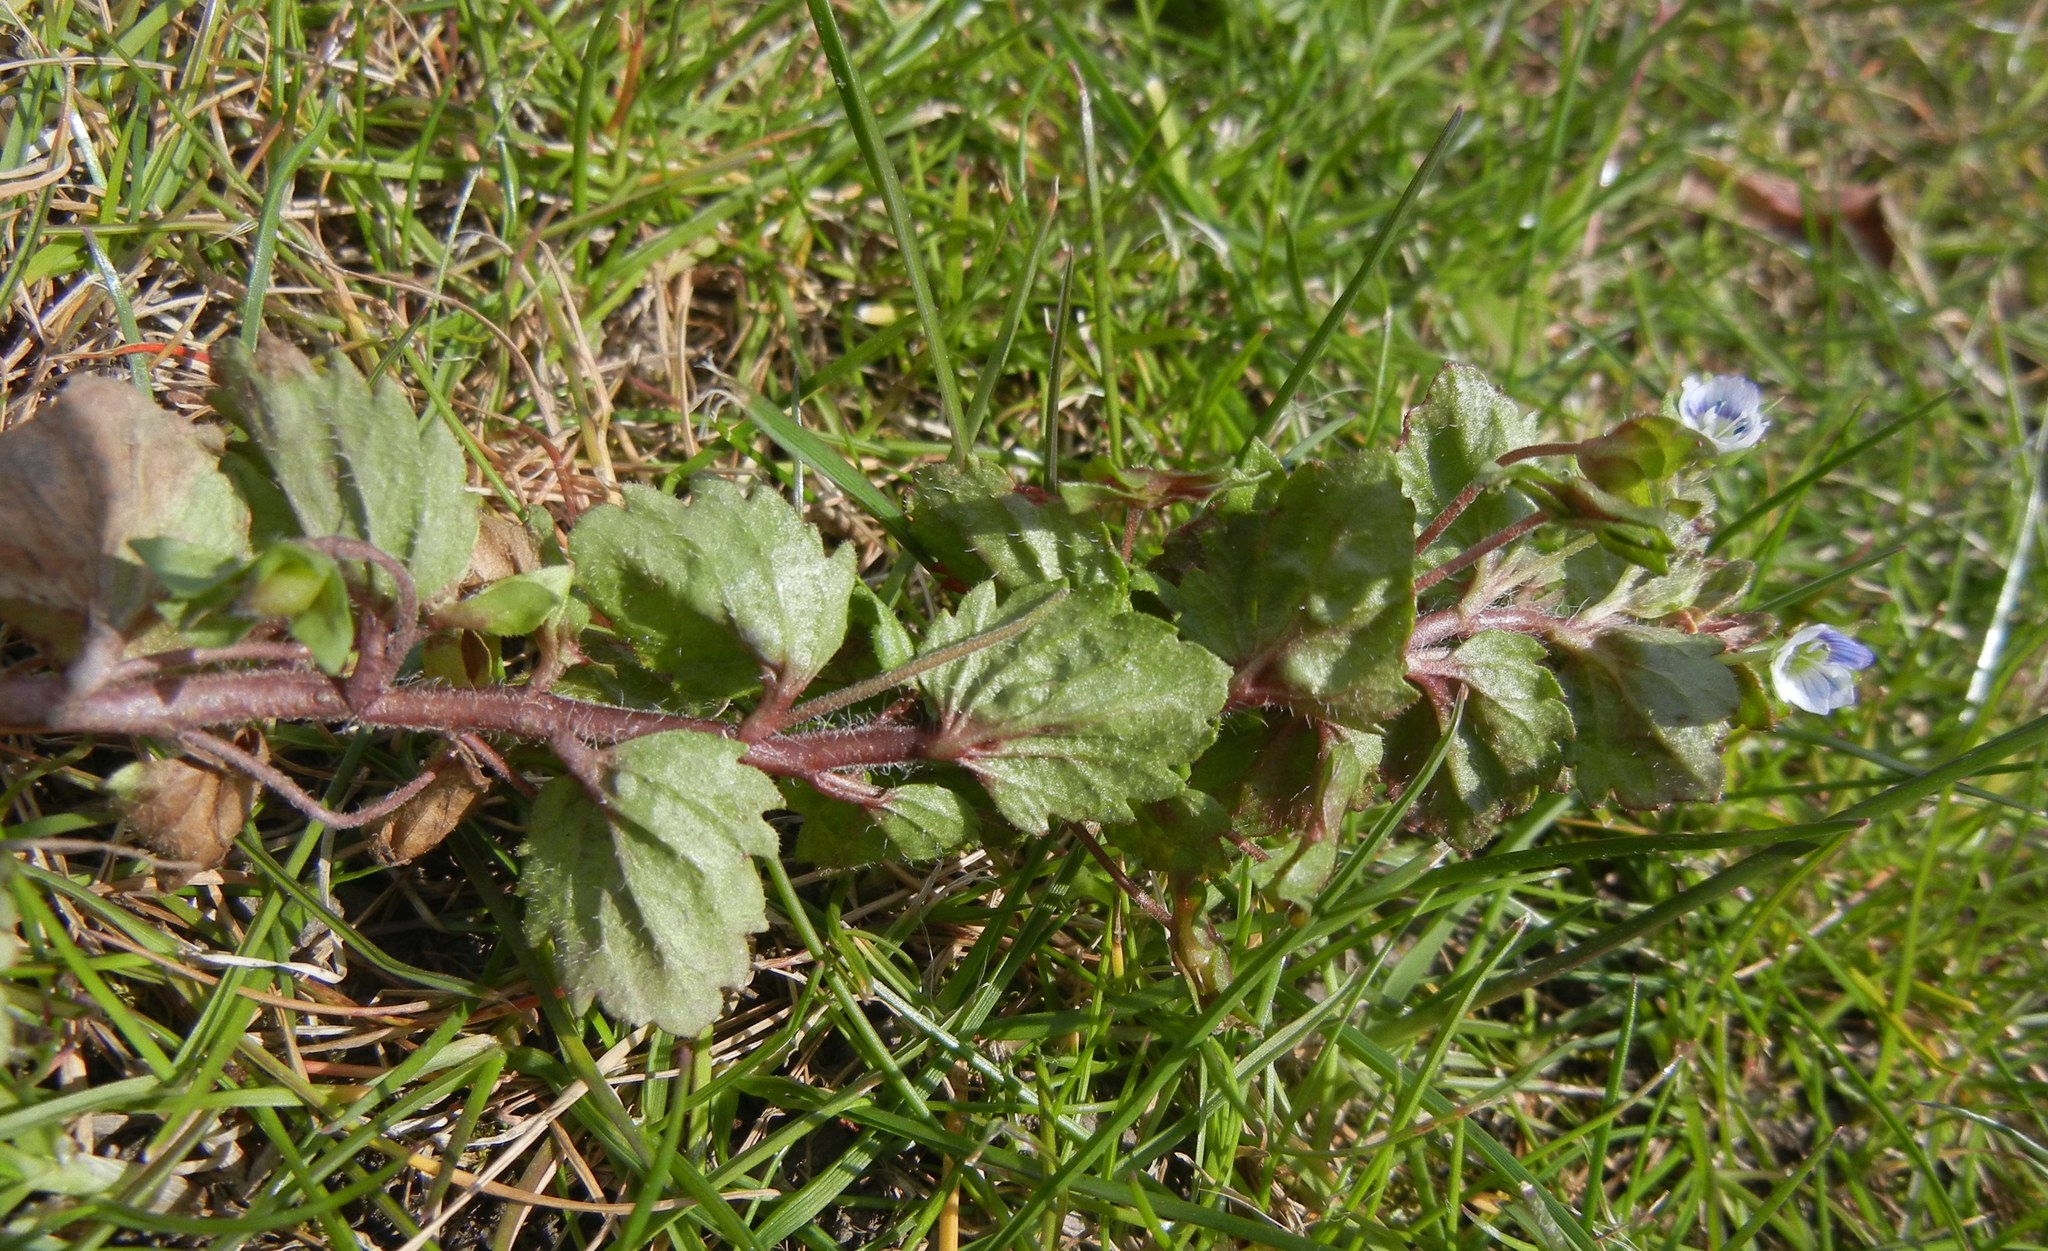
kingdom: Plantae
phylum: Tracheophyta
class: Magnoliopsida
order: Lamiales
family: Plantaginaceae
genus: Veronica
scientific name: Veronica persica
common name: Common field-speedwell
